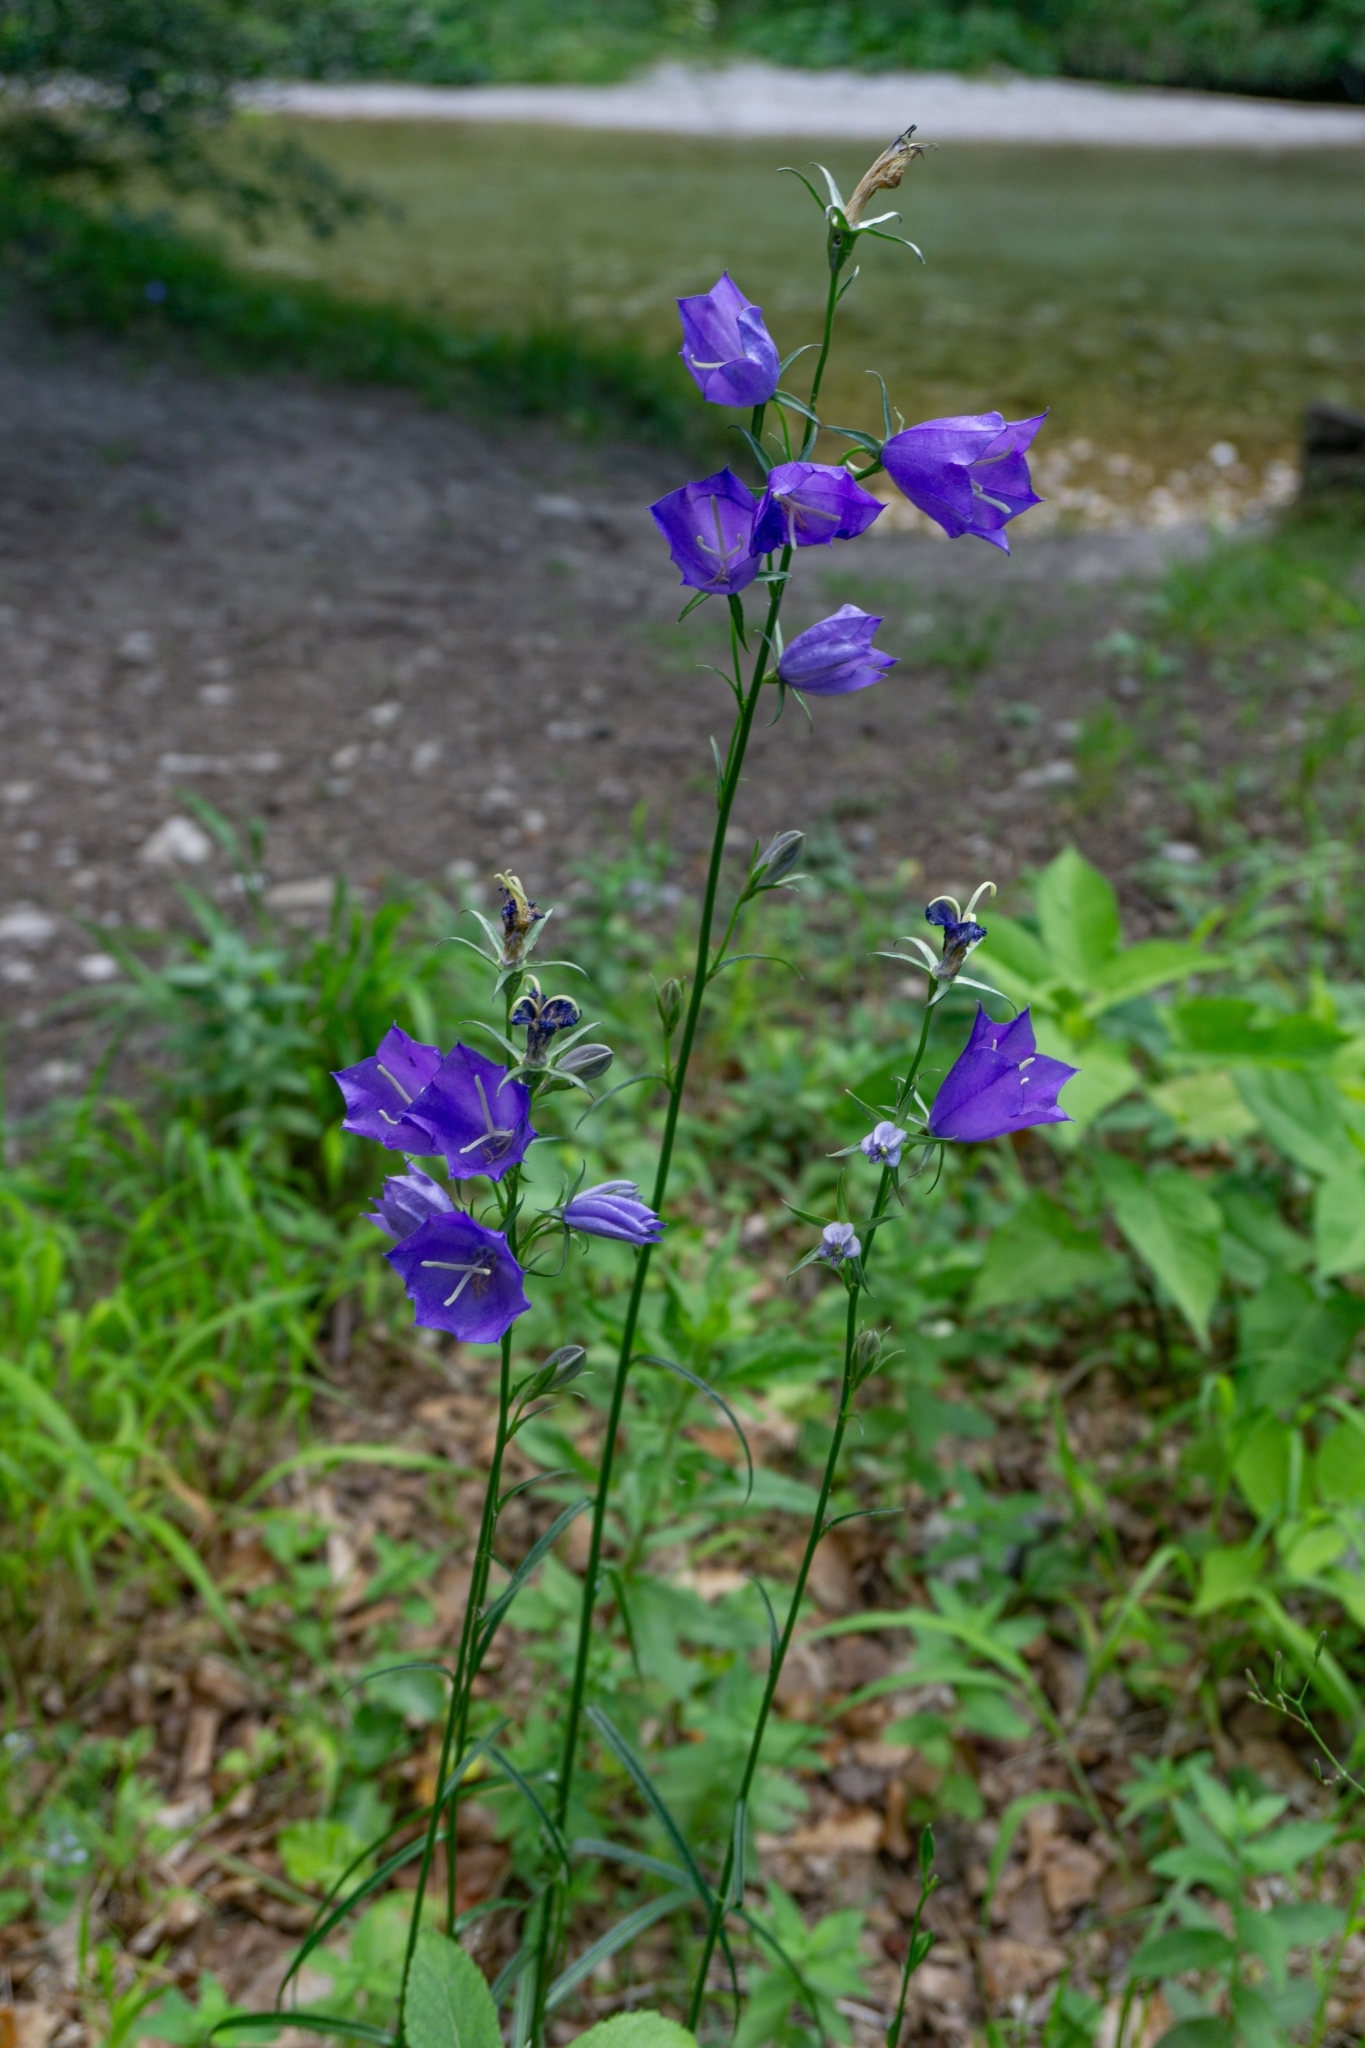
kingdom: Plantae
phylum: Tracheophyta
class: Magnoliopsida
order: Asterales
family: Campanulaceae
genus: Campanula
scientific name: Campanula persicifolia
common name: Peach-leaved bellflower
